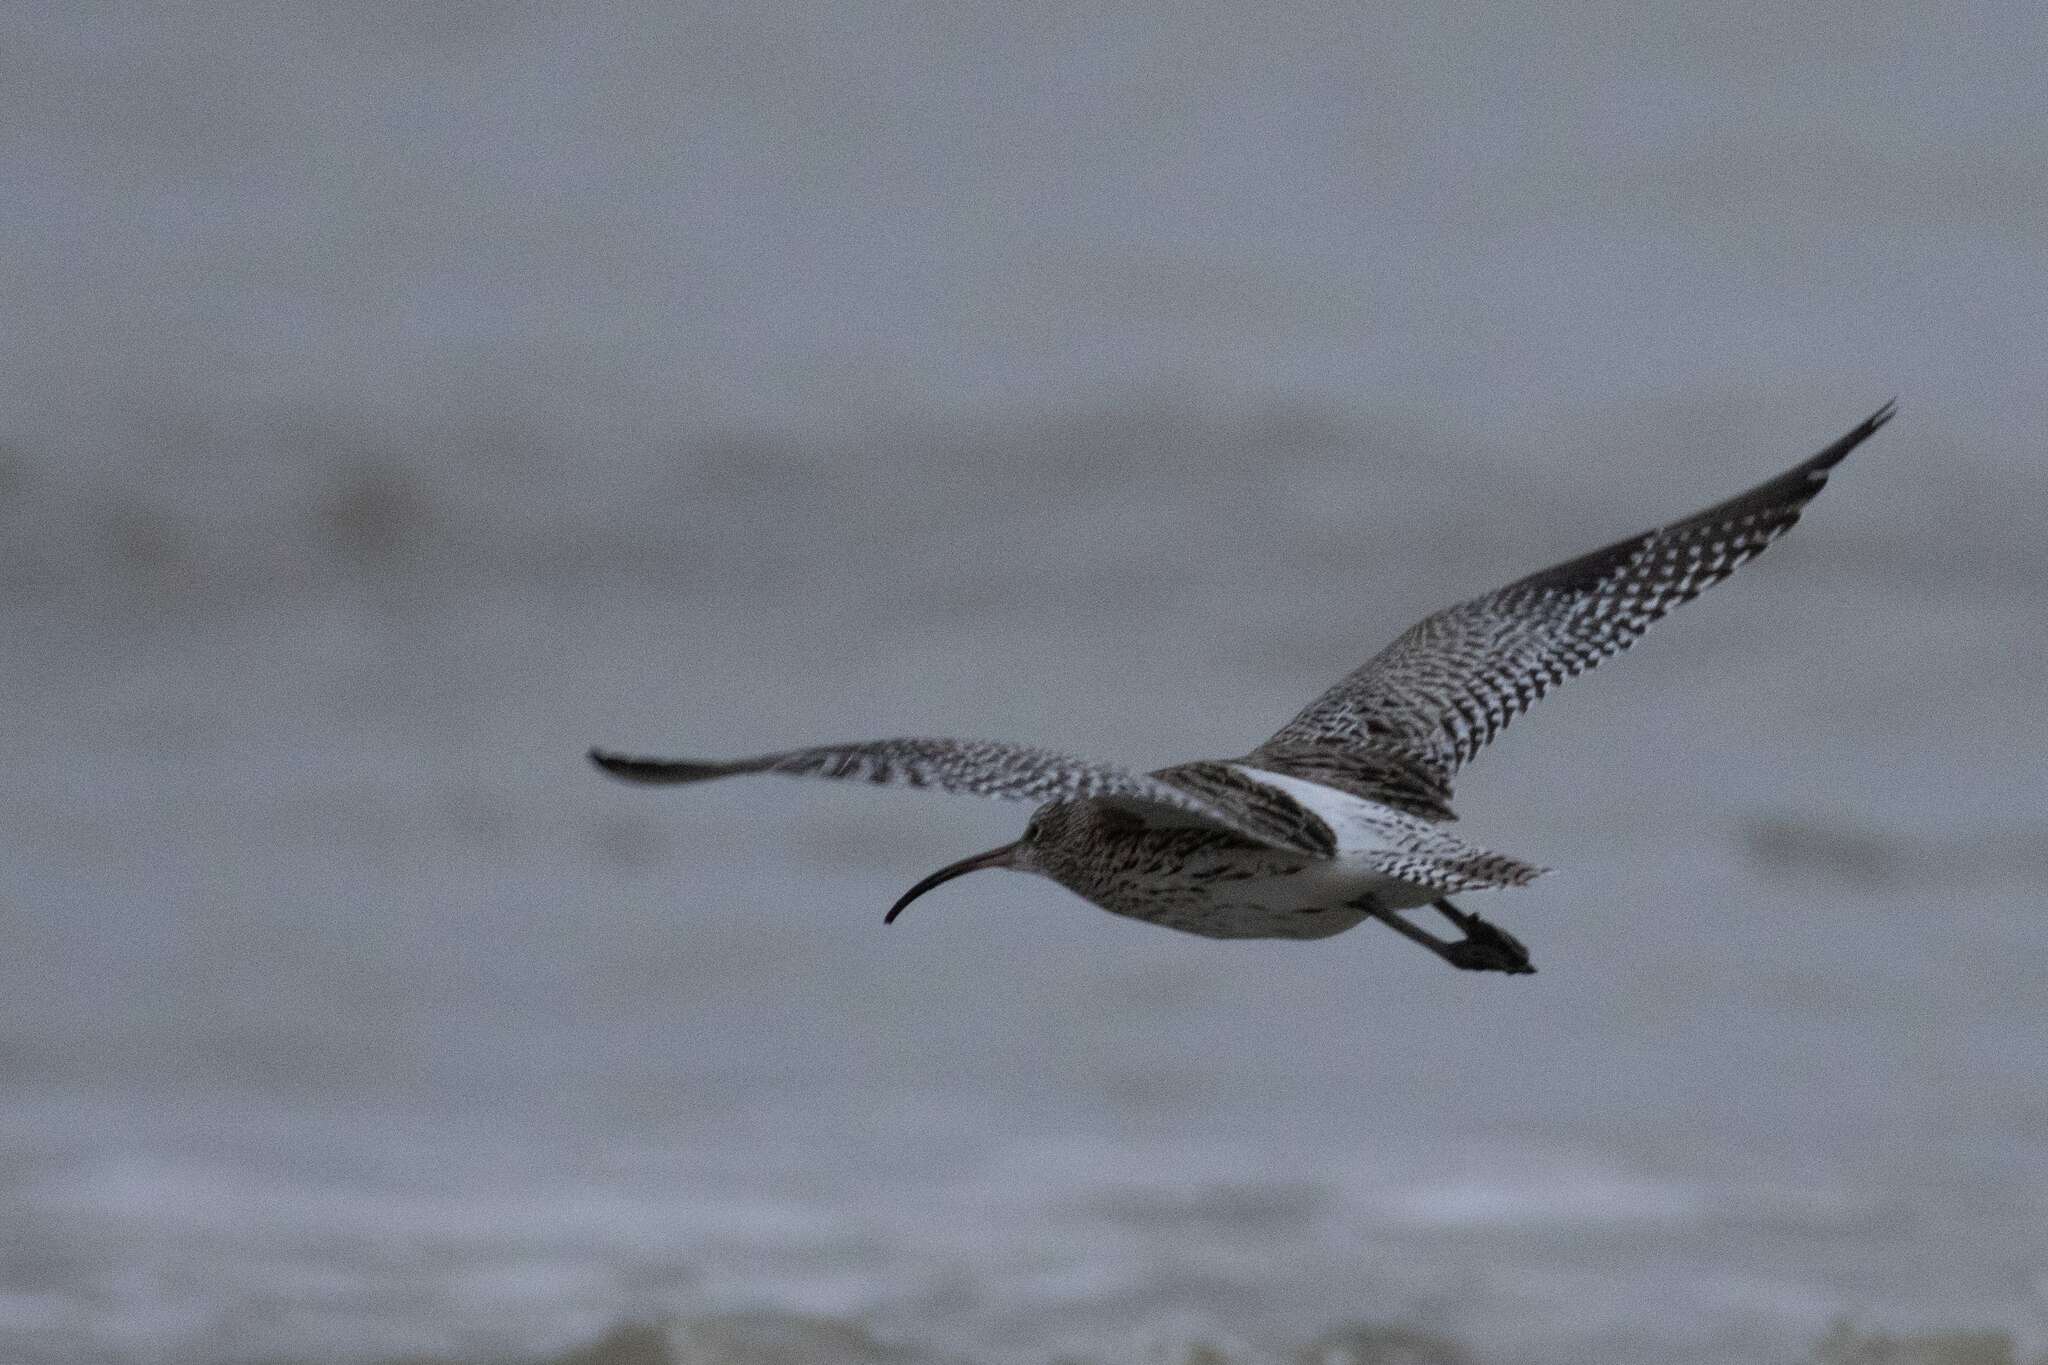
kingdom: Animalia
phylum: Chordata
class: Aves
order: Charadriiformes
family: Scolopacidae
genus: Numenius
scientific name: Numenius arquata
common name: Eurasian curlew
